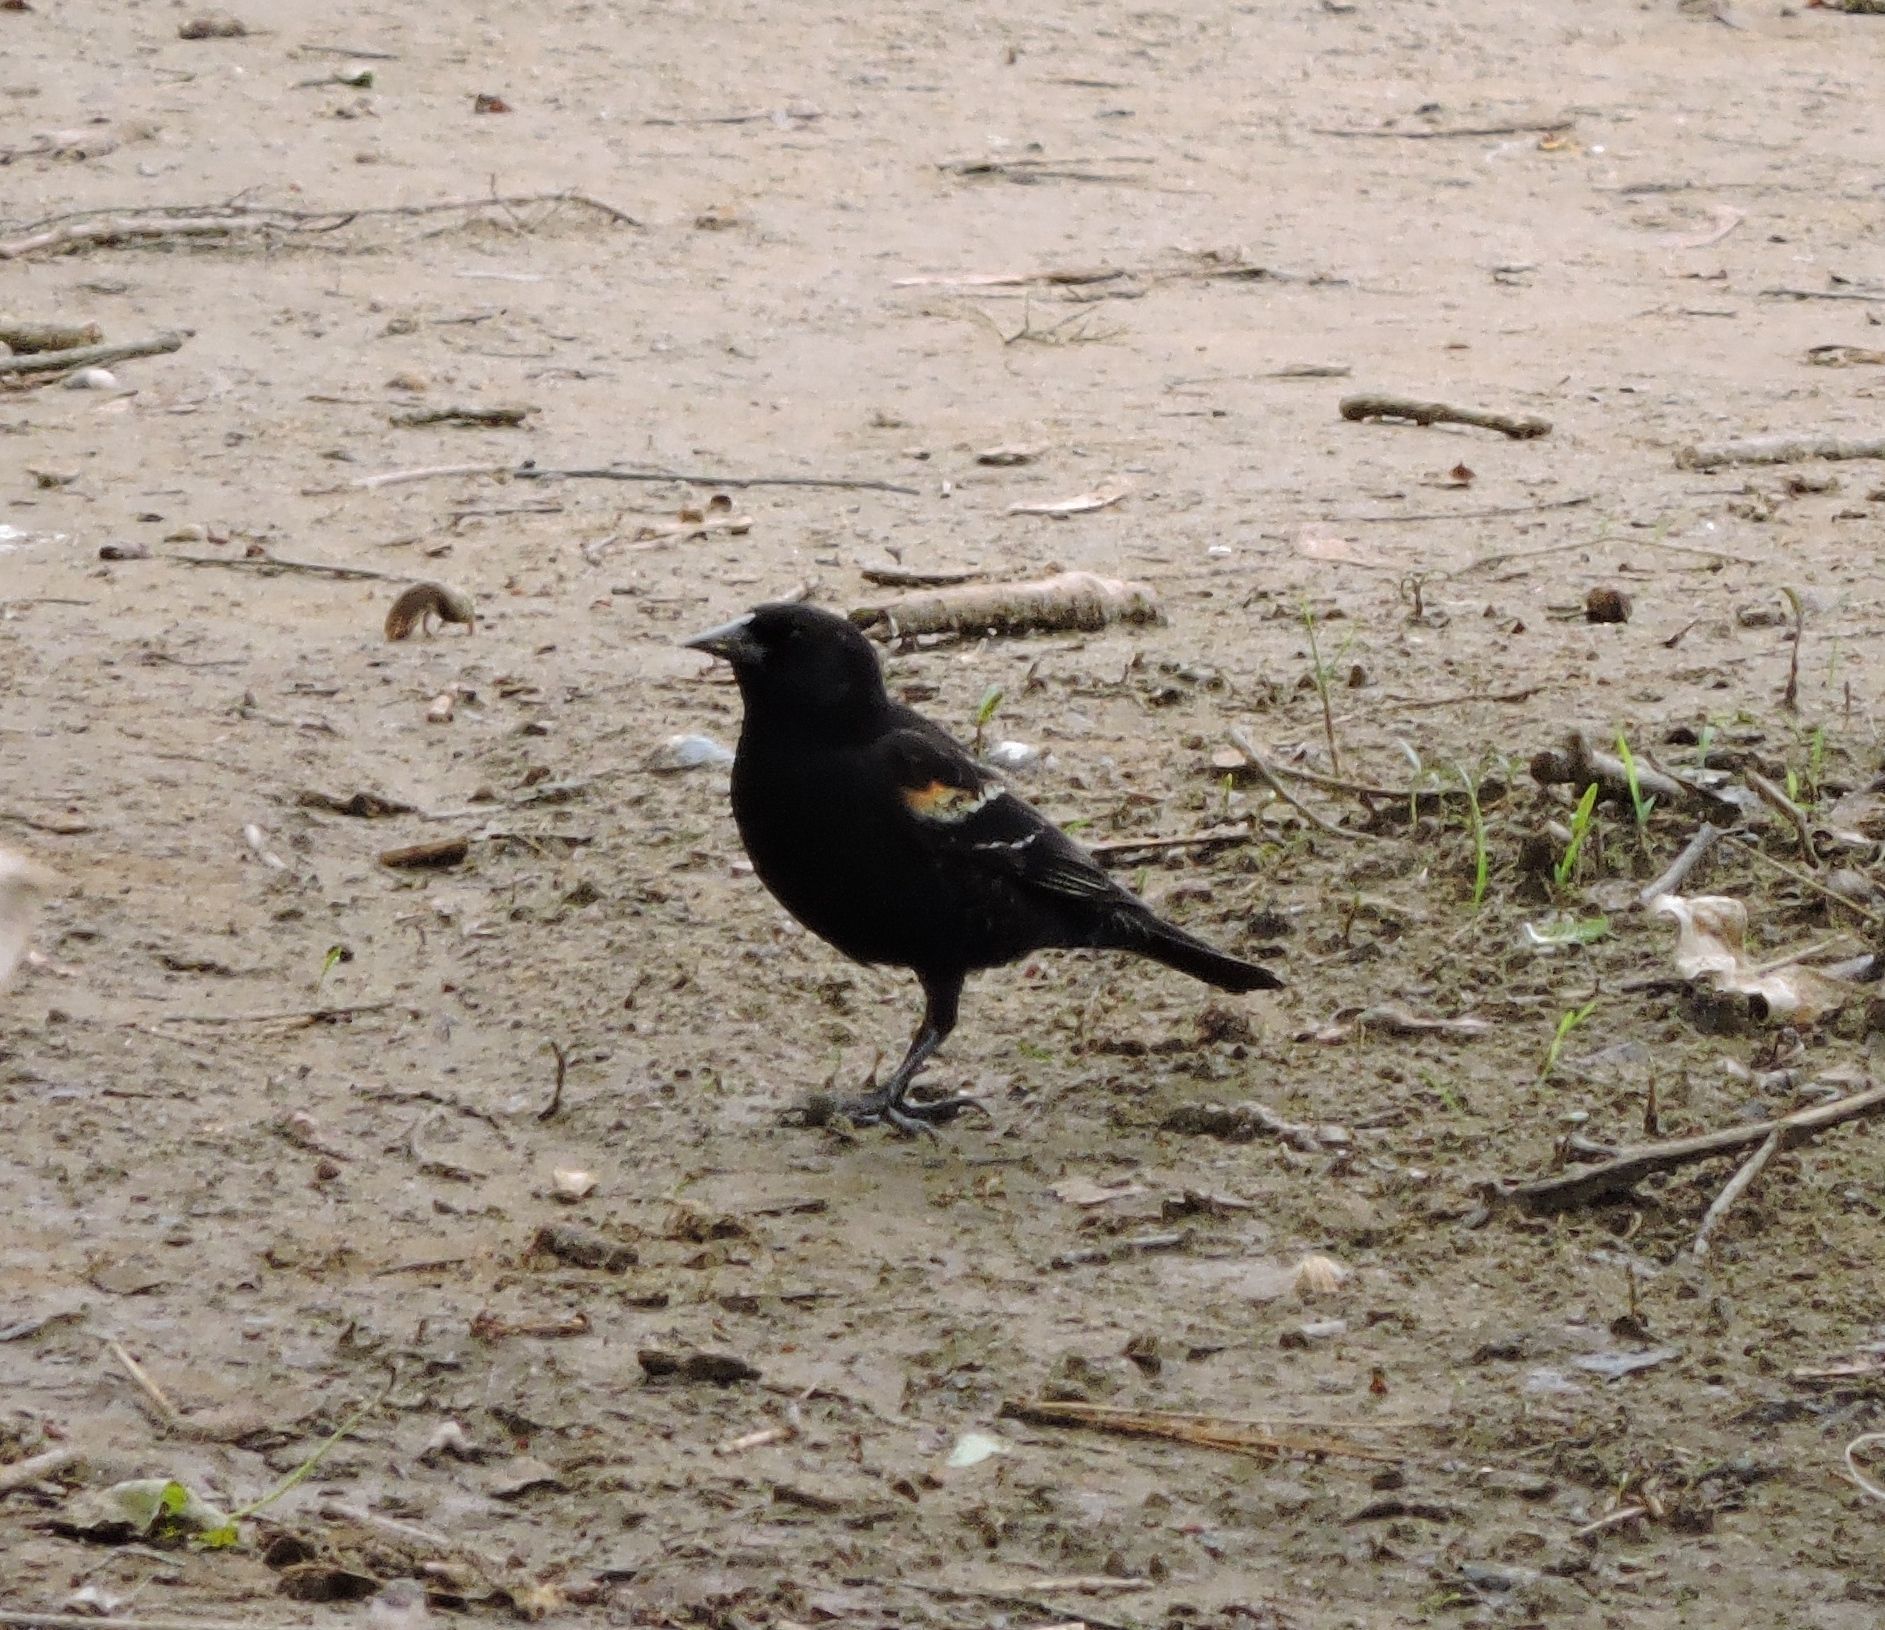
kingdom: Animalia
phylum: Chordata
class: Aves
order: Passeriformes
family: Icteridae
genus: Agelaius
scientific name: Agelaius phoeniceus
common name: Red-winged blackbird
